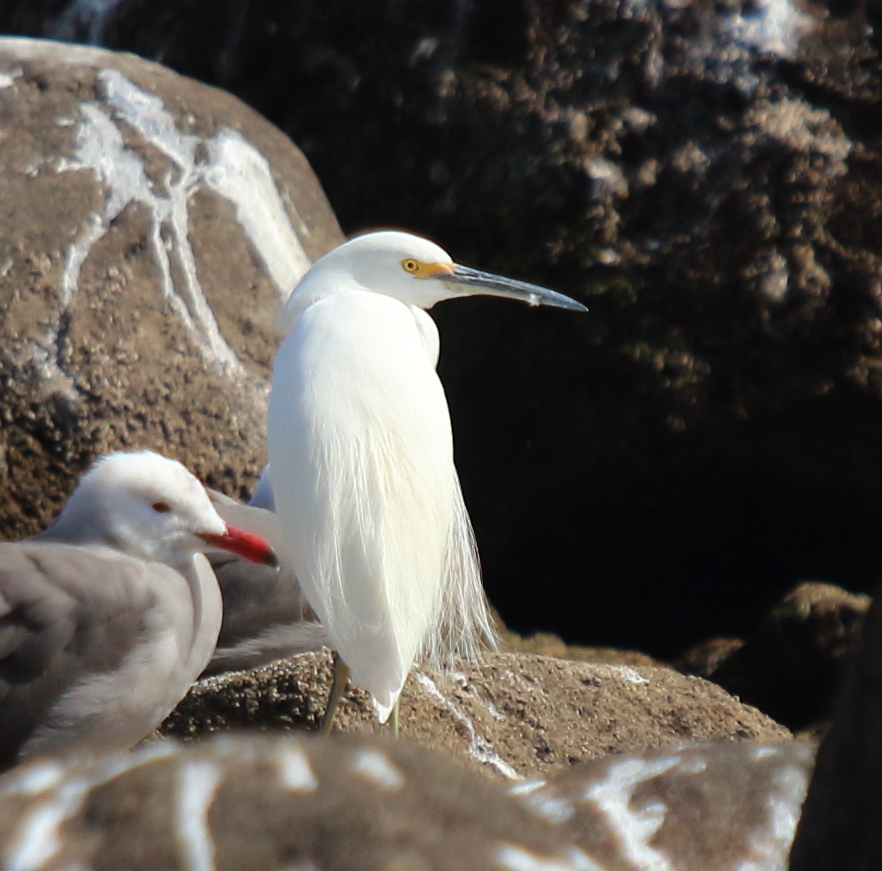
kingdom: Animalia
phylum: Chordata
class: Aves
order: Pelecaniformes
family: Ardeidae
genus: Egretta
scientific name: Egretta thula
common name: Snowy egret
